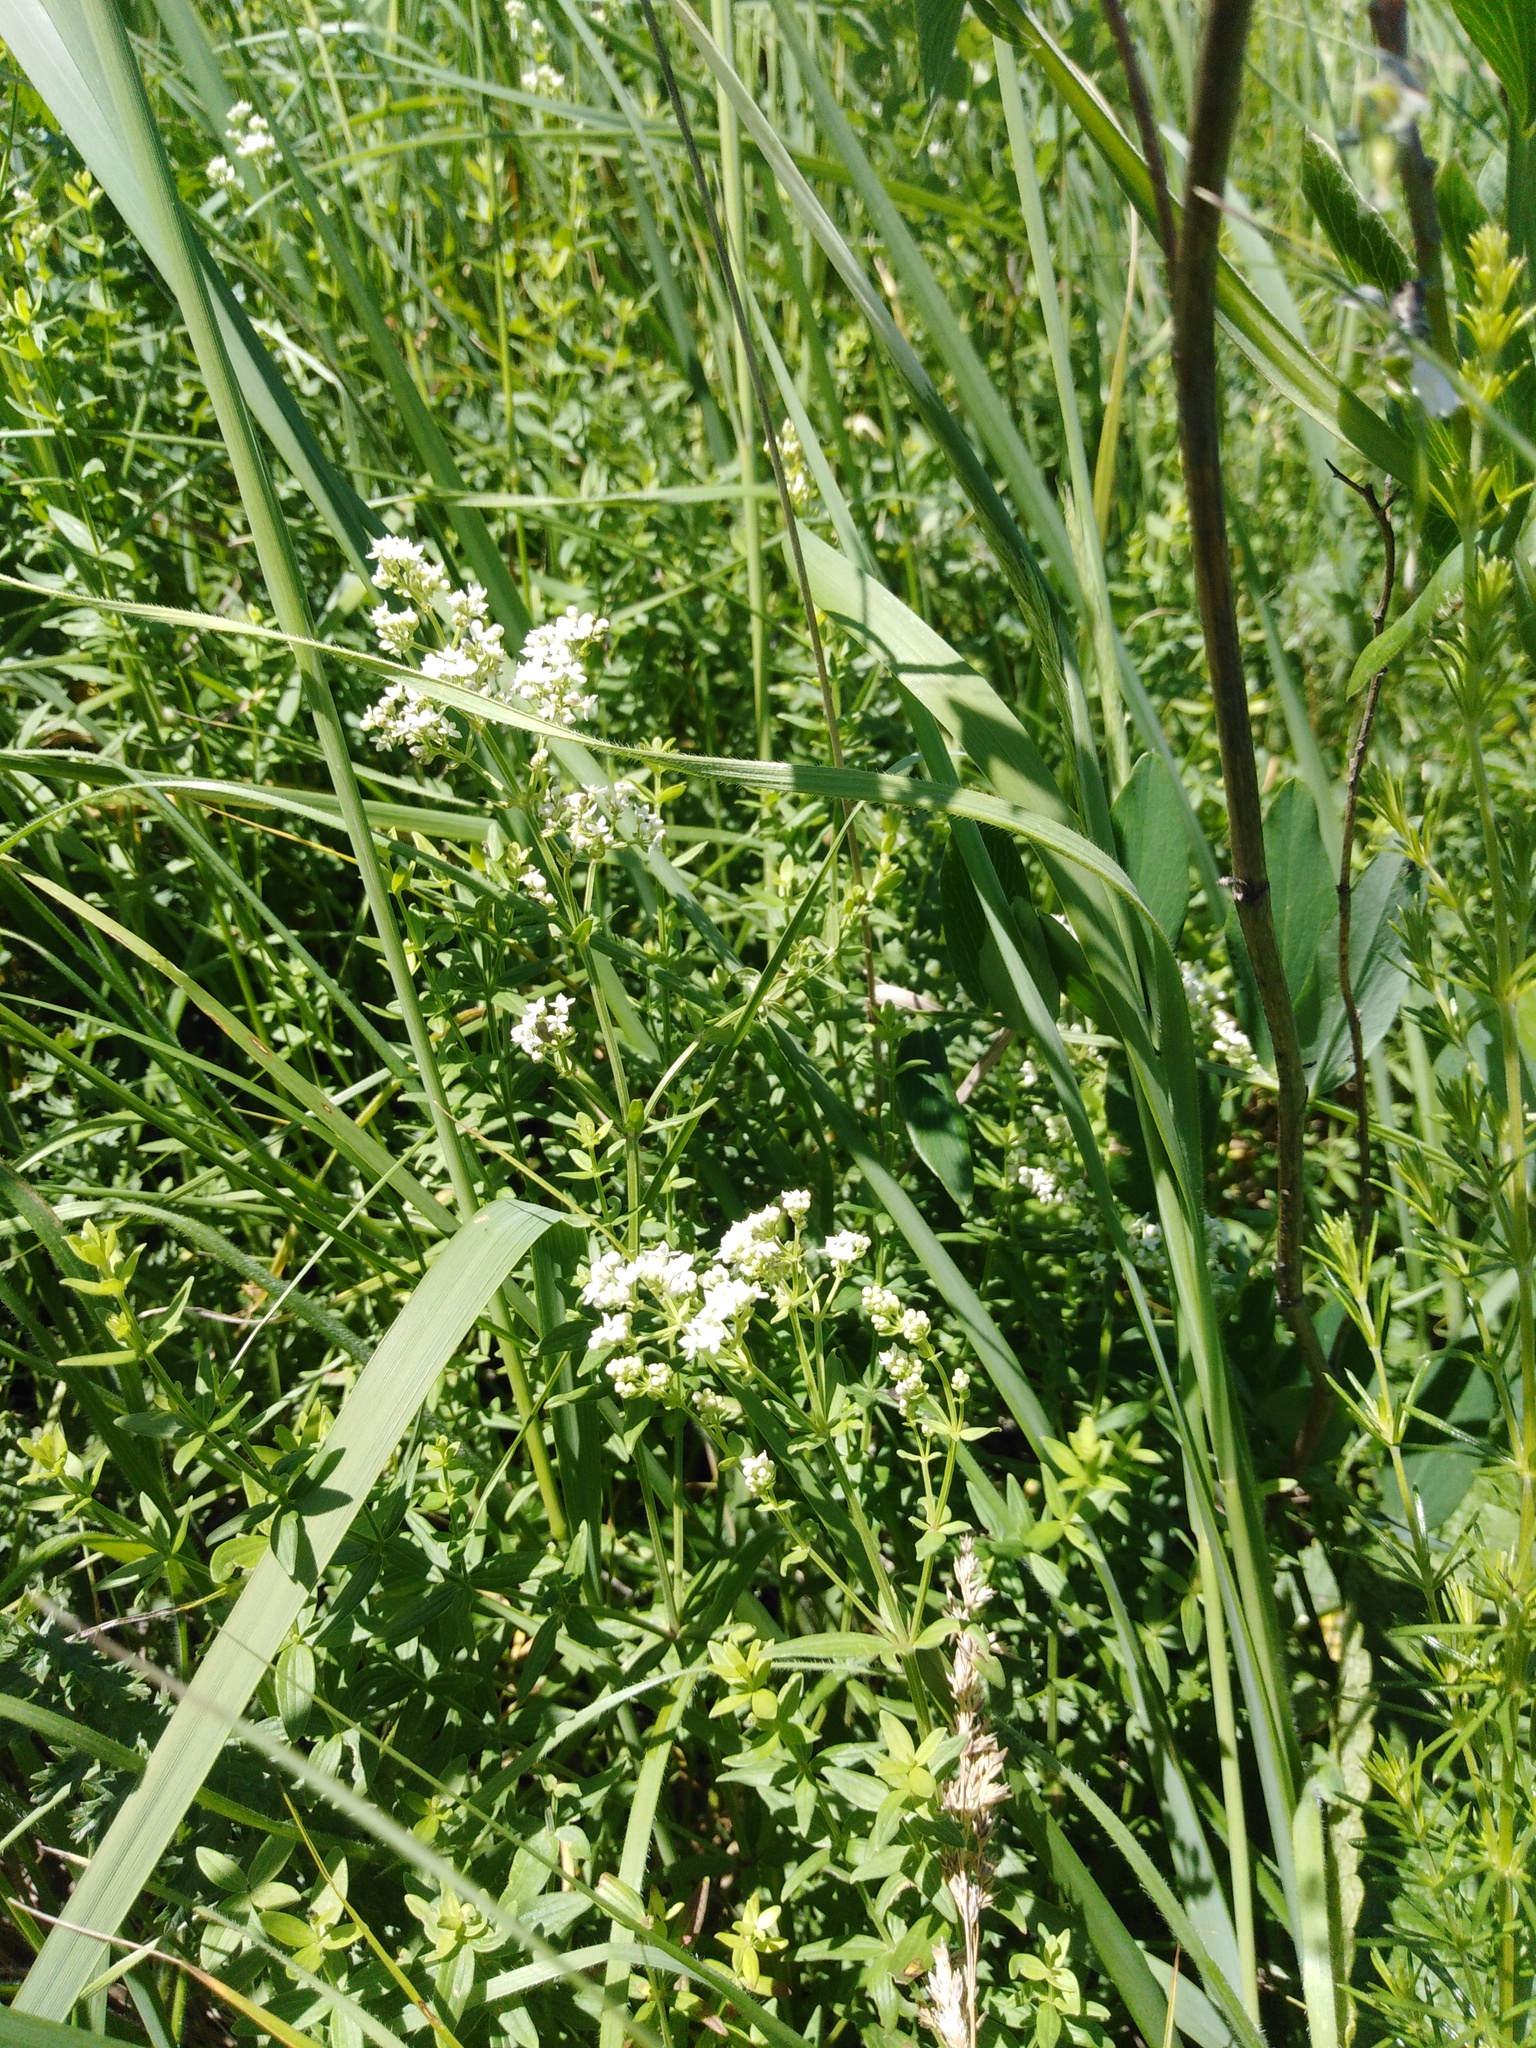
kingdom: Plantae
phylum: Tracheophyta
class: Magnoliopsida
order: Gentianales
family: Rubiaceae
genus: Galium
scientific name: Galium boreale
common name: Northern bedstraw
